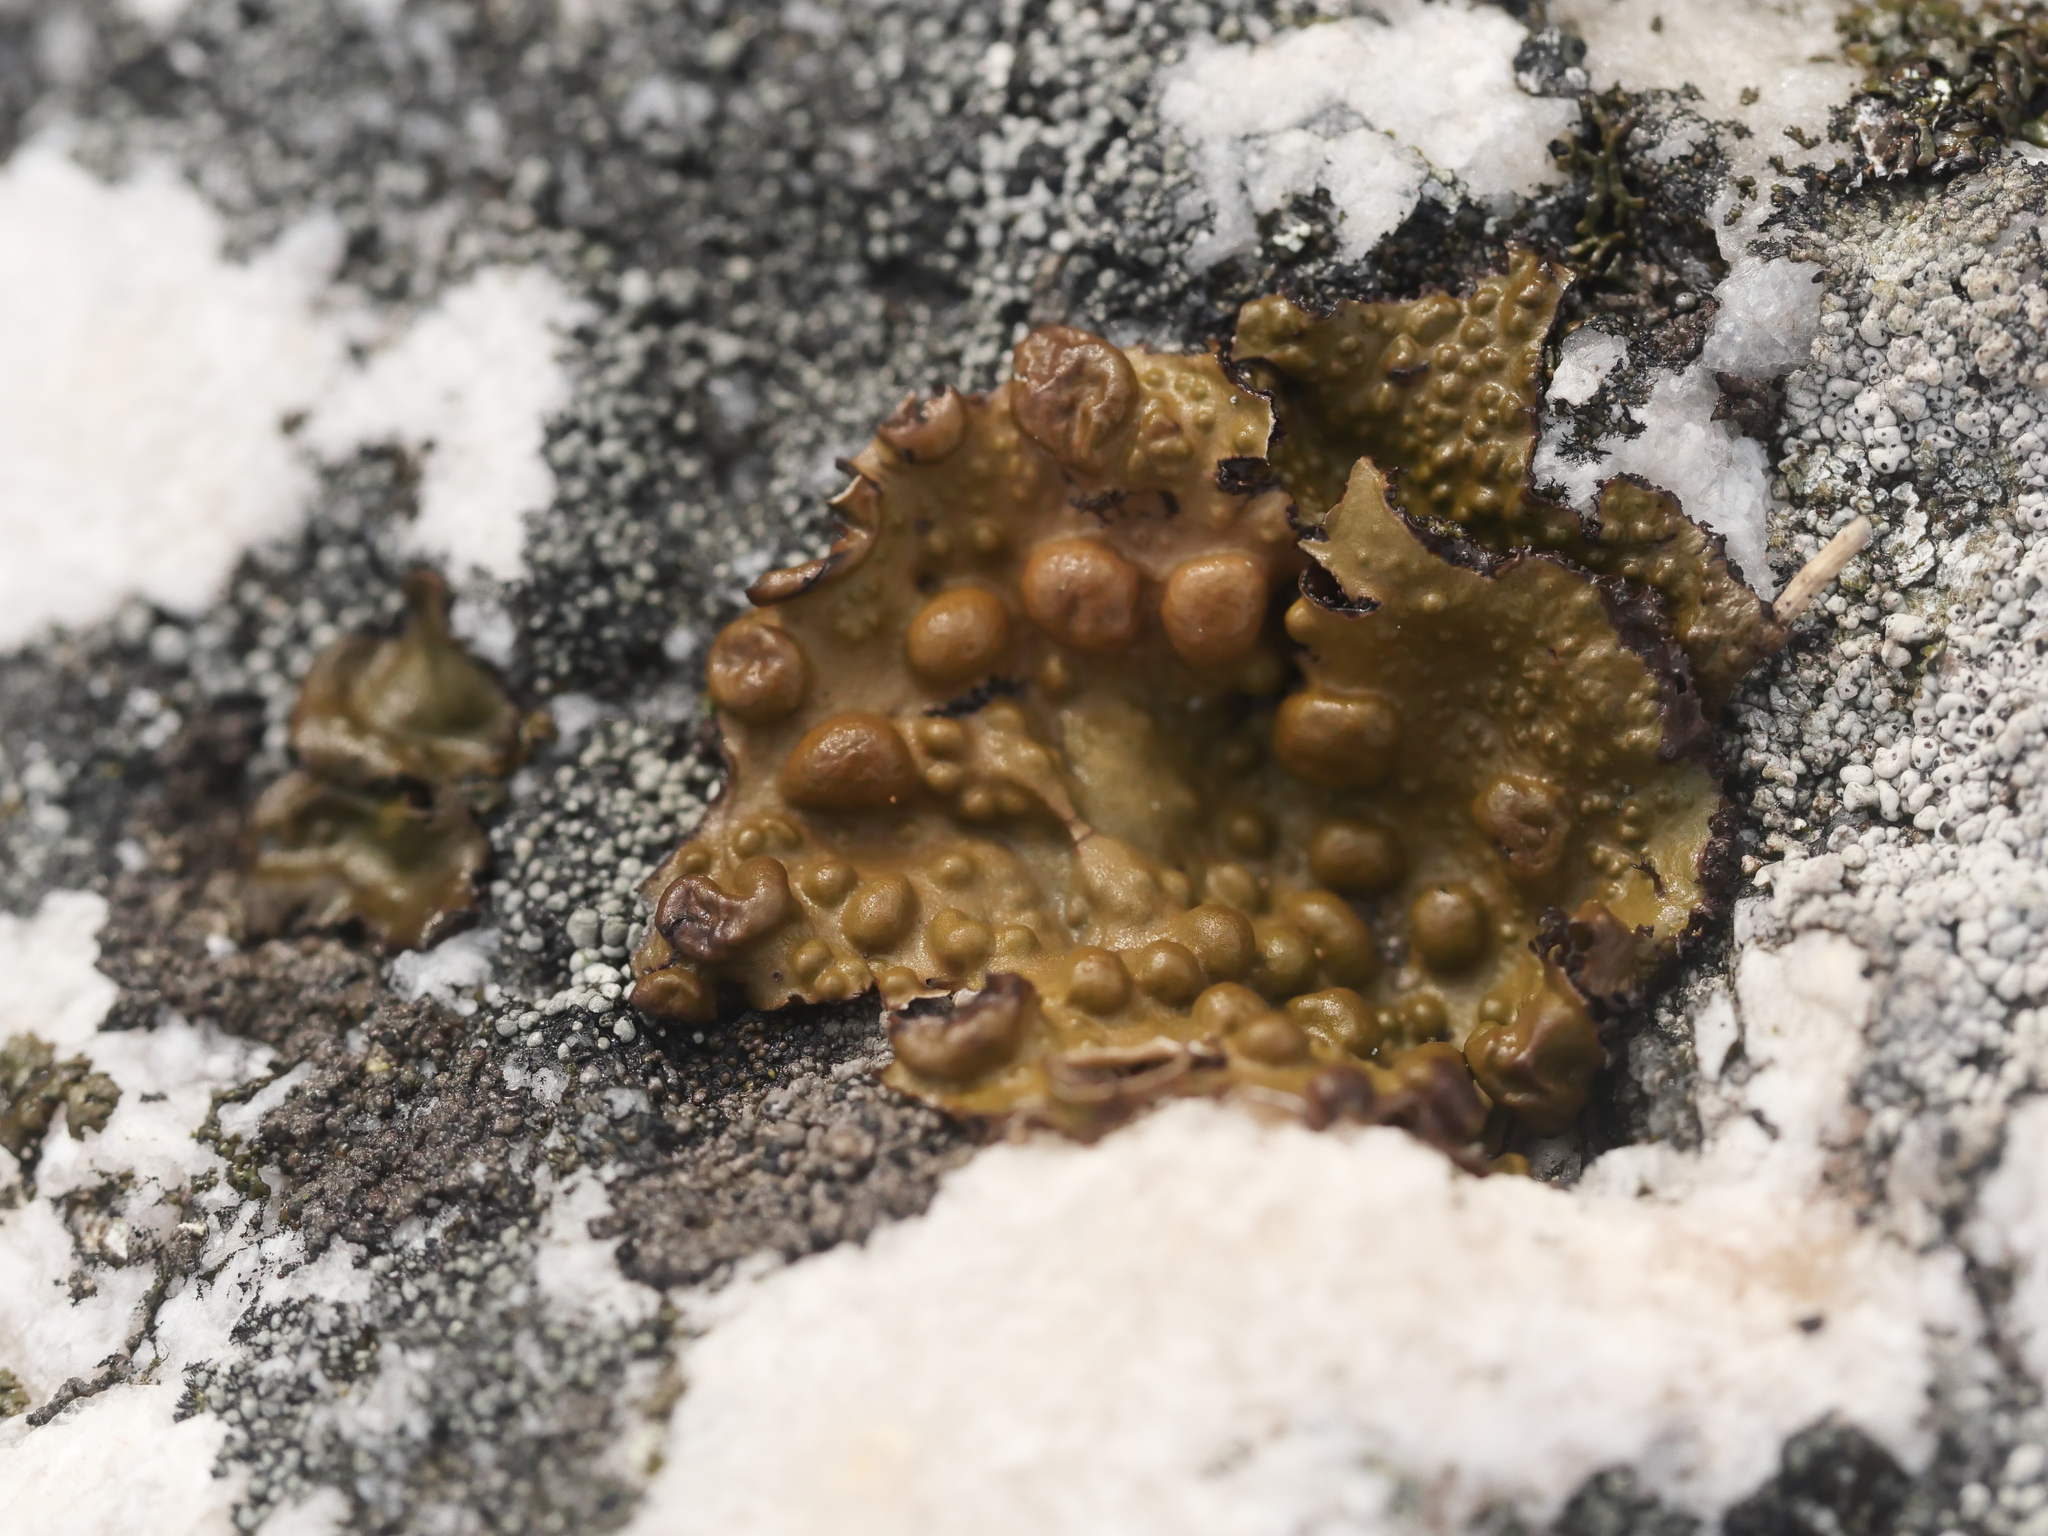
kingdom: Fungi
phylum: Ascomycota
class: Lecanoromycetes
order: Umbilicariales
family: Umbilicariaceae
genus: Lasallia
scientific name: Lasallia papulosa
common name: Common toadskin lichen
